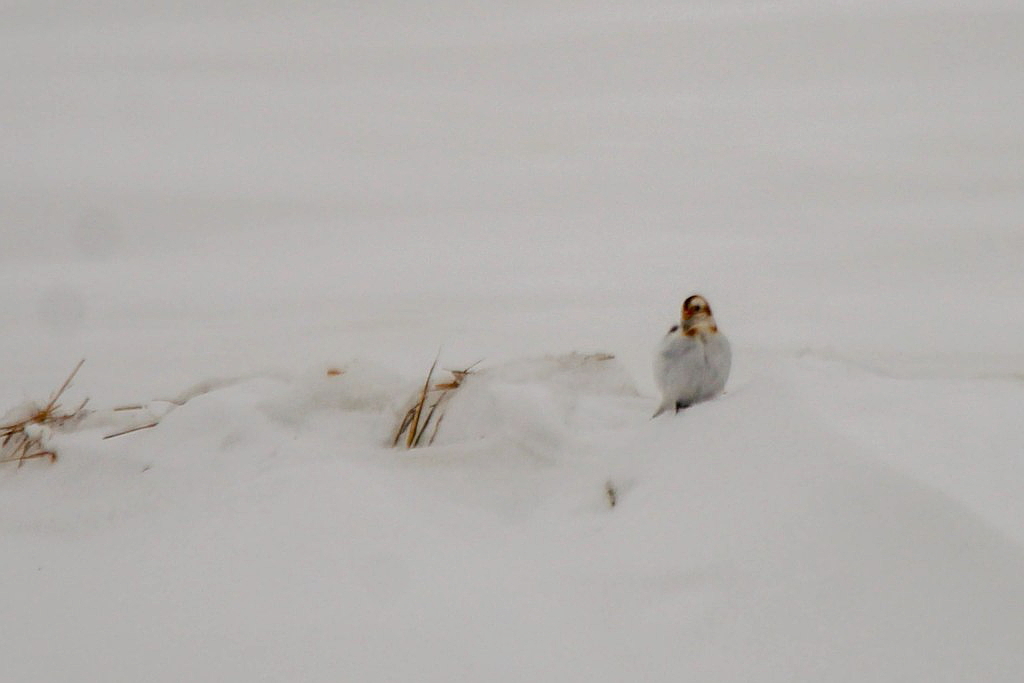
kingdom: Animalia
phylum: Chordata
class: Aves
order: Passeriformes
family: Calcariidae
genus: Plectrophenax
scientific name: Plectrophenax nivalis
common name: Snow bunting
